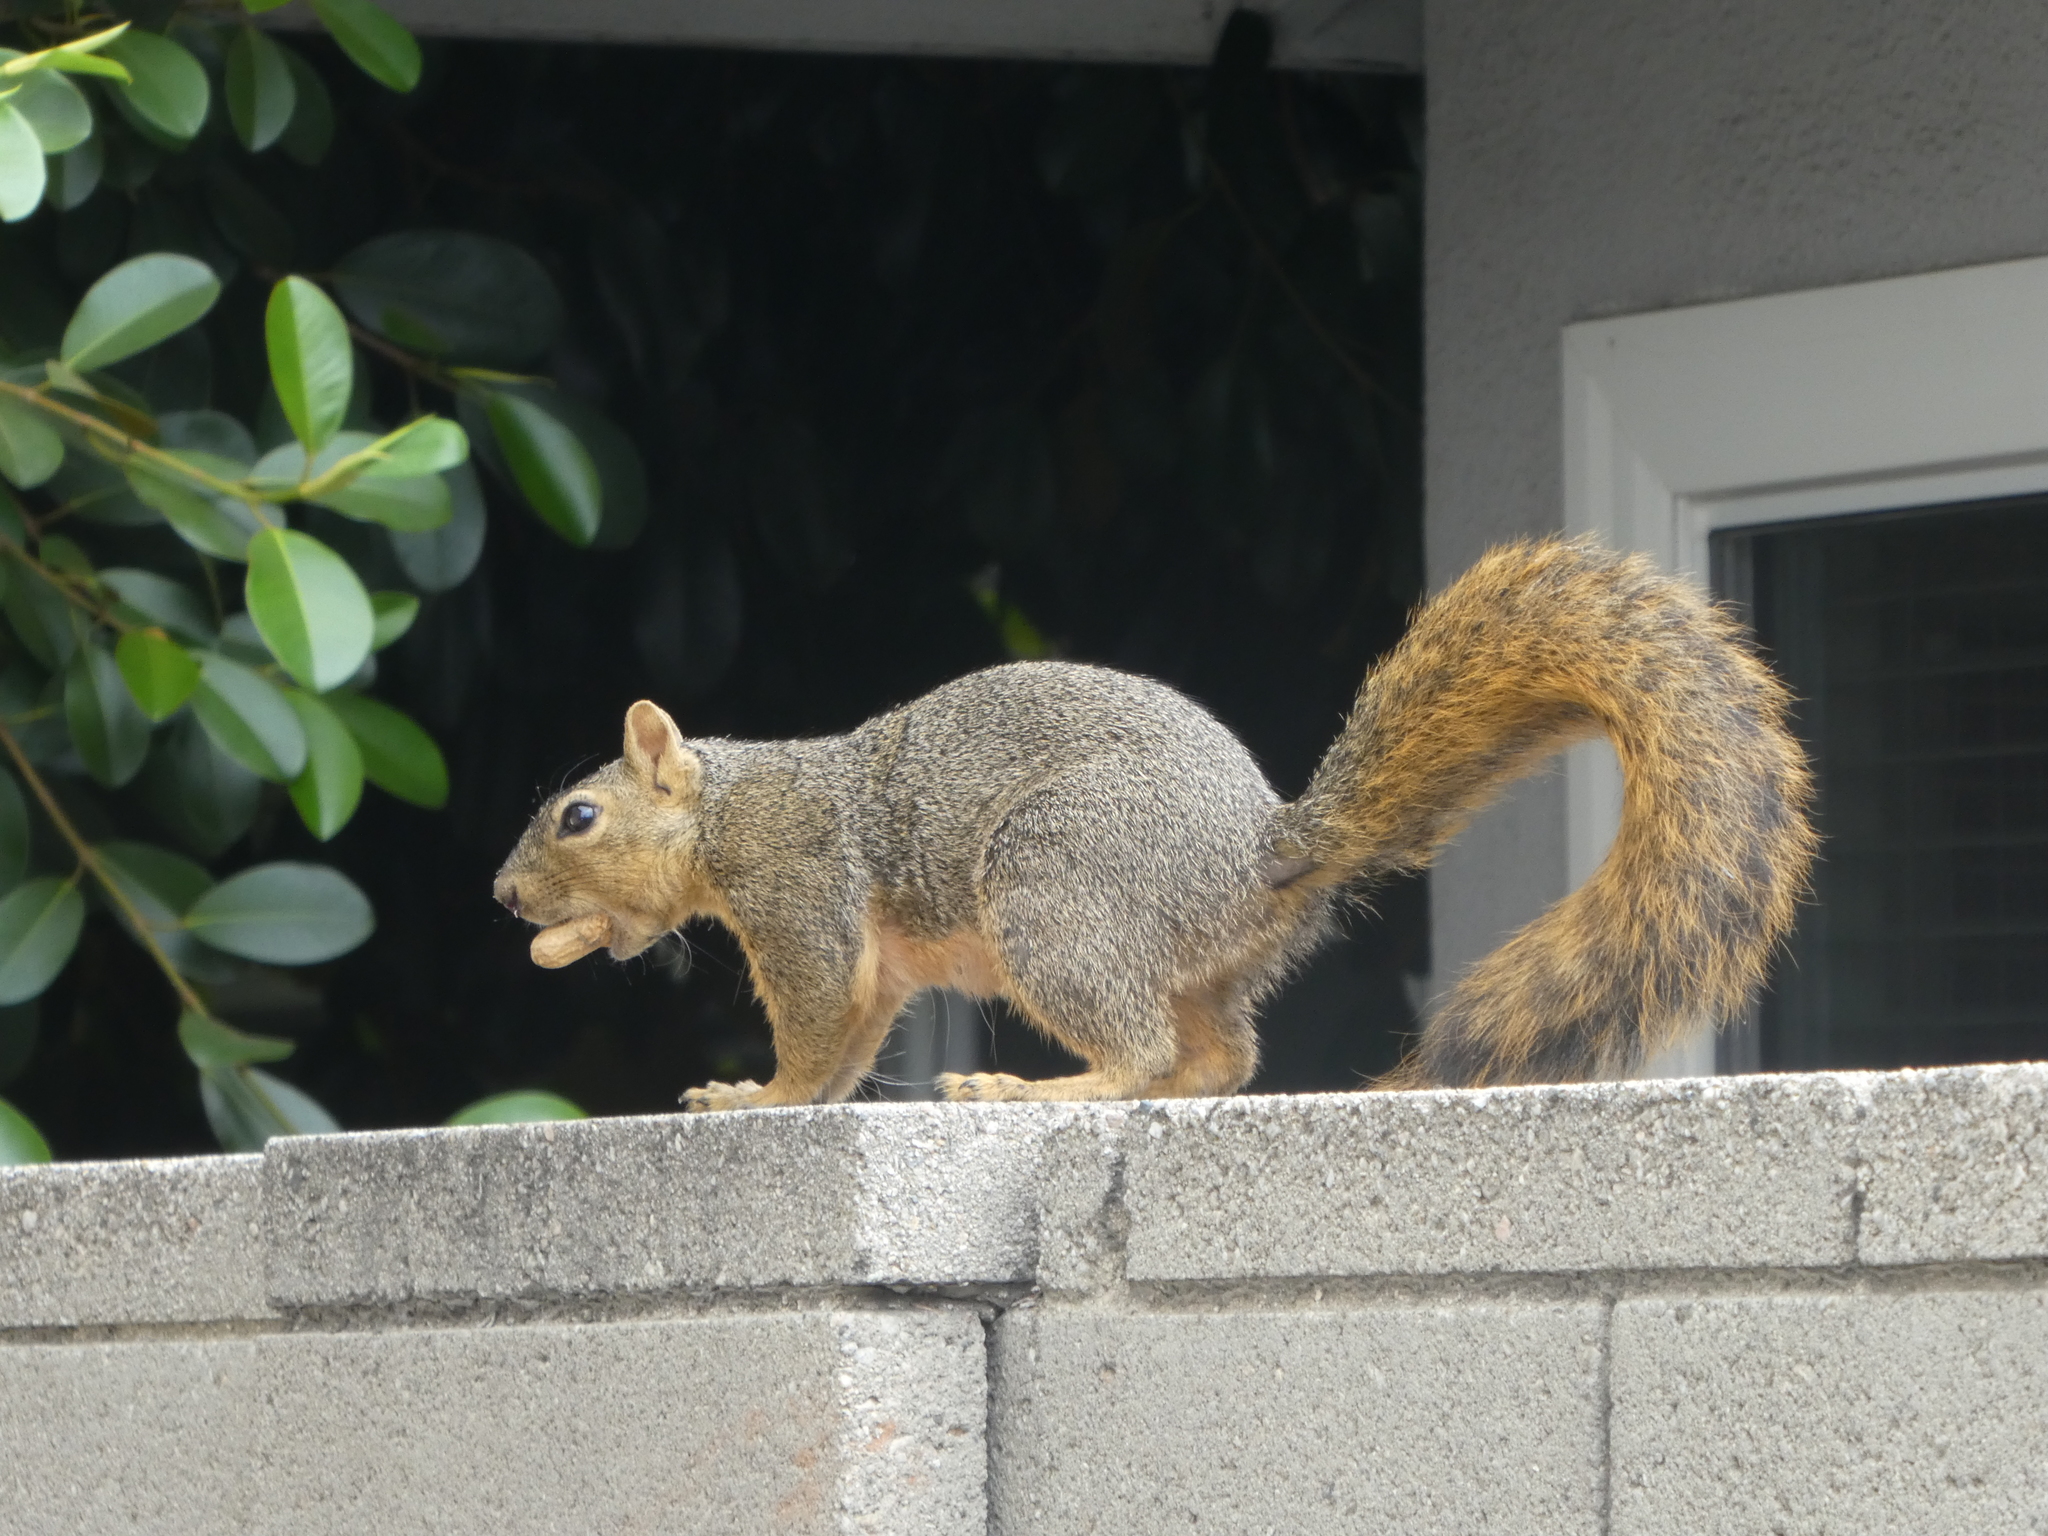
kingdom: Animalia
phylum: Chordata
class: Mammalia
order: Rodentia
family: Sciuridae
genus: Sciurus
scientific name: Sciurus niger
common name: Fox squirrel
